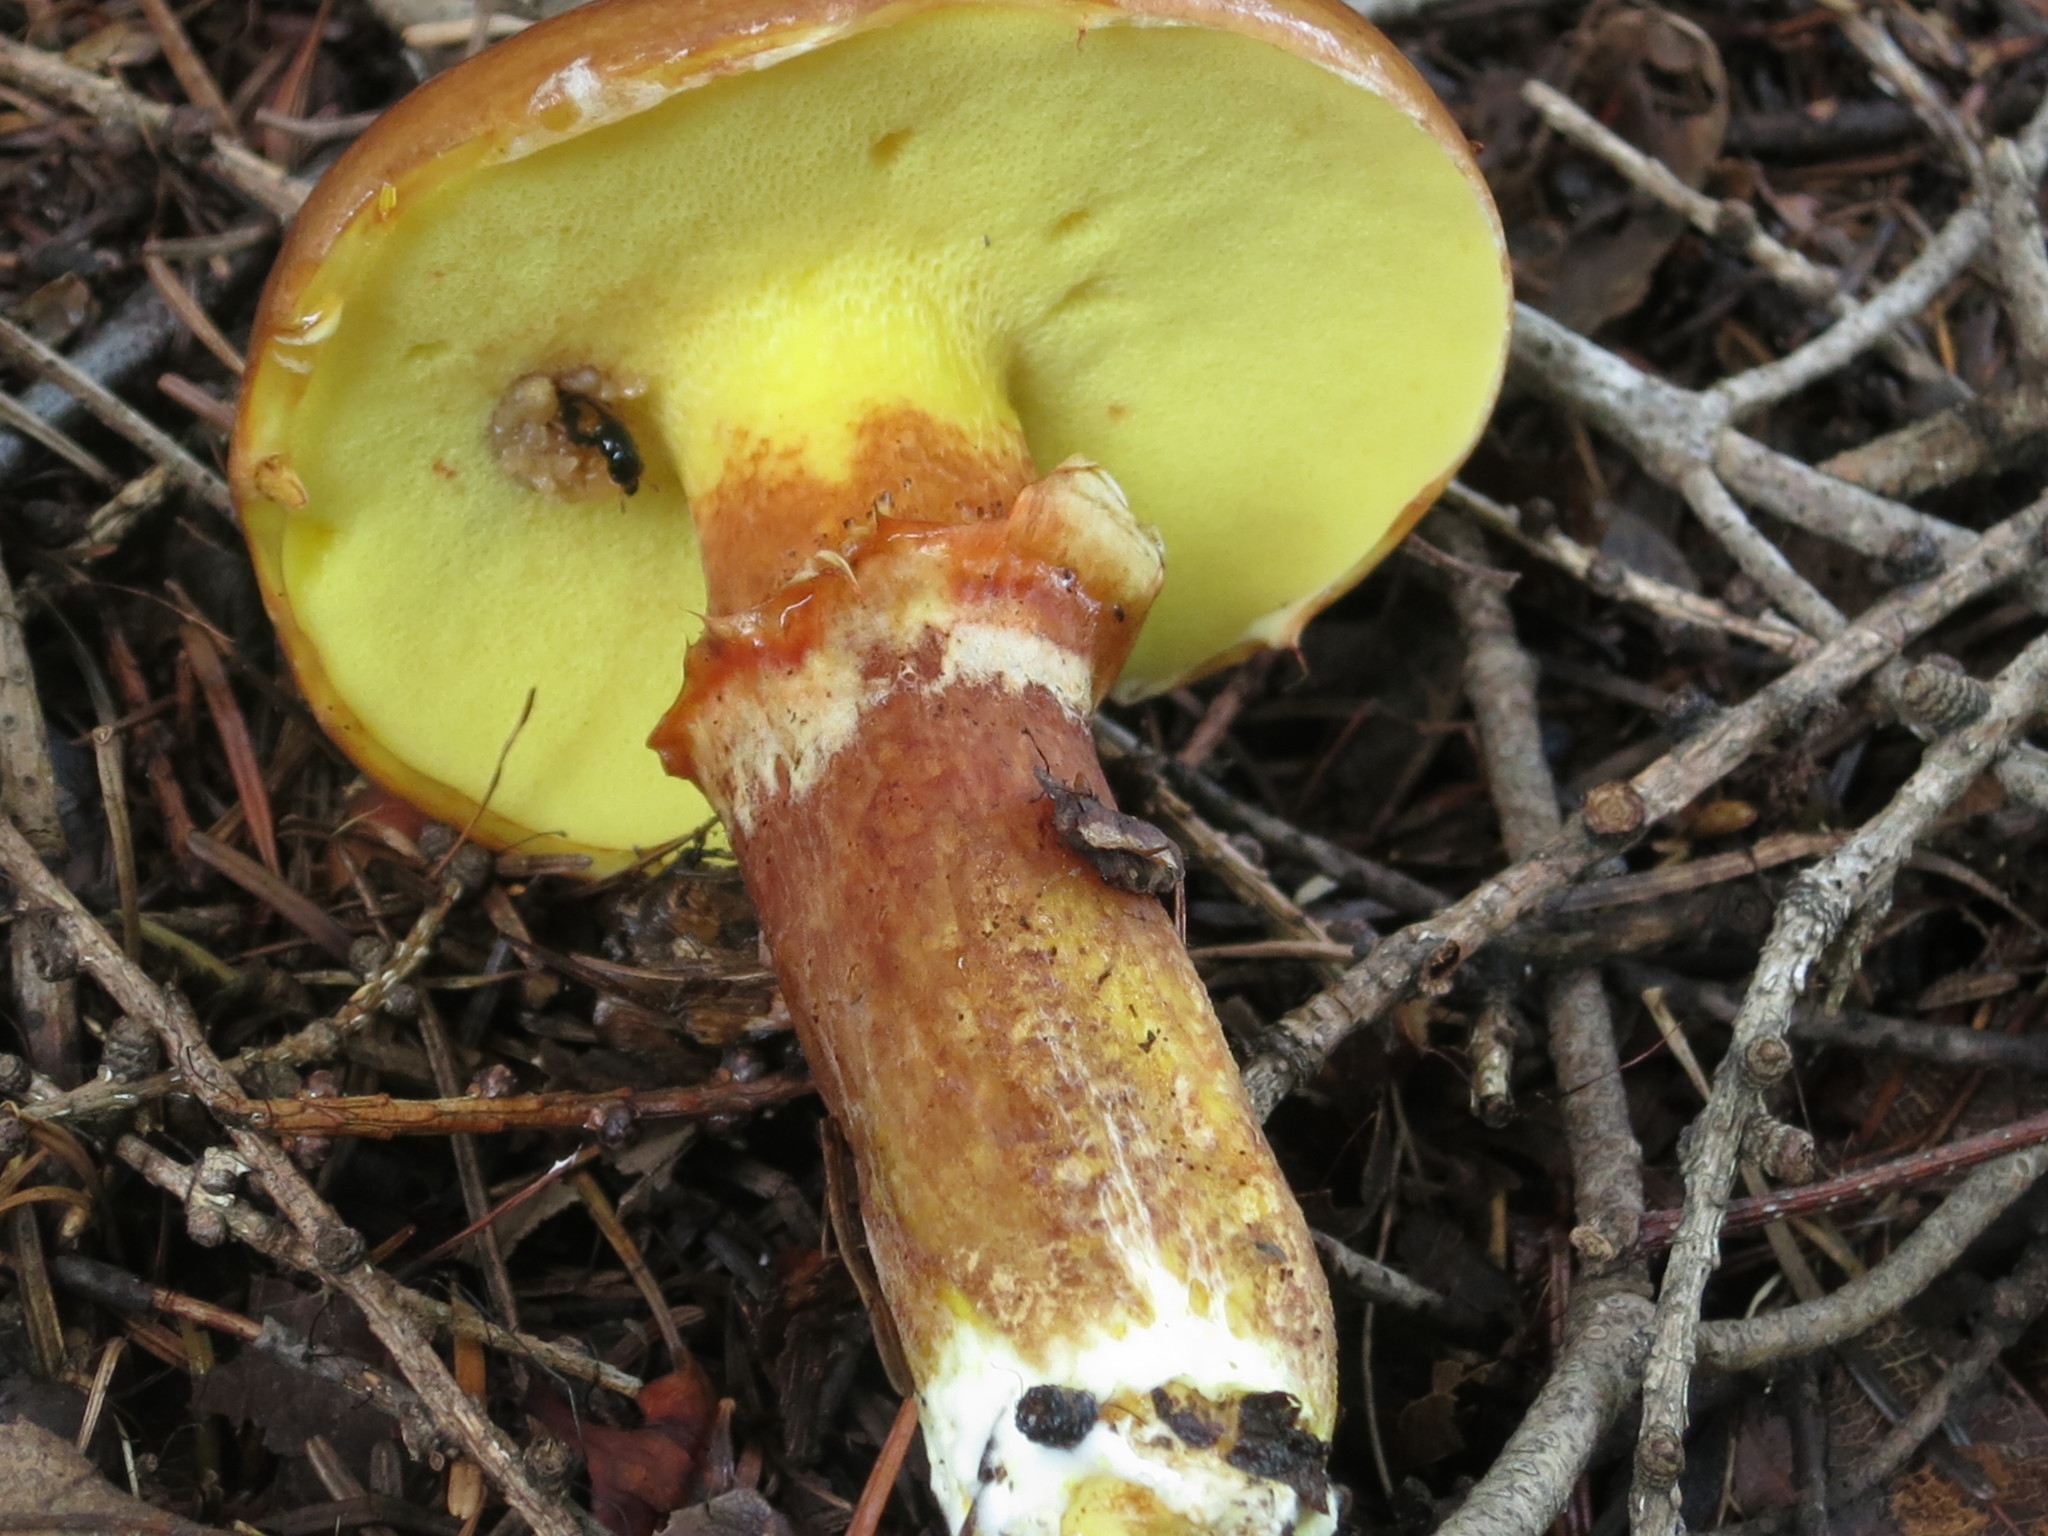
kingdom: Fungi
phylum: Basidiomycota
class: Agaricomycetes
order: Boletales
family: Suillaceae
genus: Suillus
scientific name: Suillus grevillei
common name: Larch bolete
